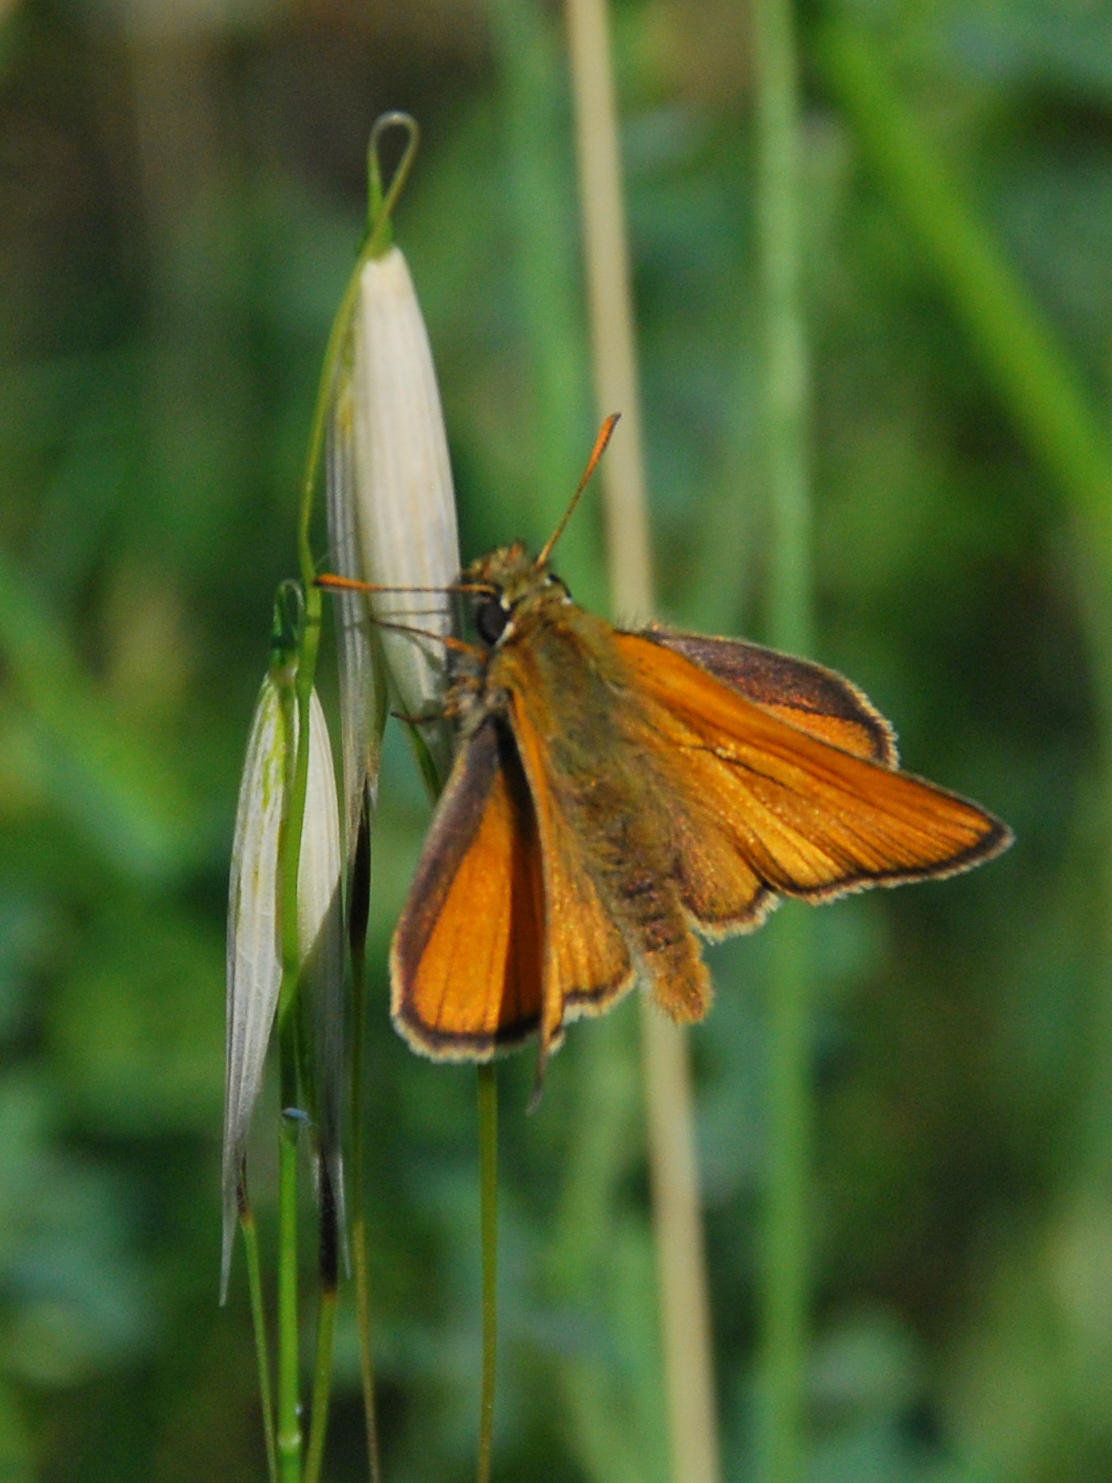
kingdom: Animalia
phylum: Arthropoda
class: Insecta
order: Lepidoptera
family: Hesperiidae
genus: Thymelicus
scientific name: Thymelicus sylvestris
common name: Small skipper
